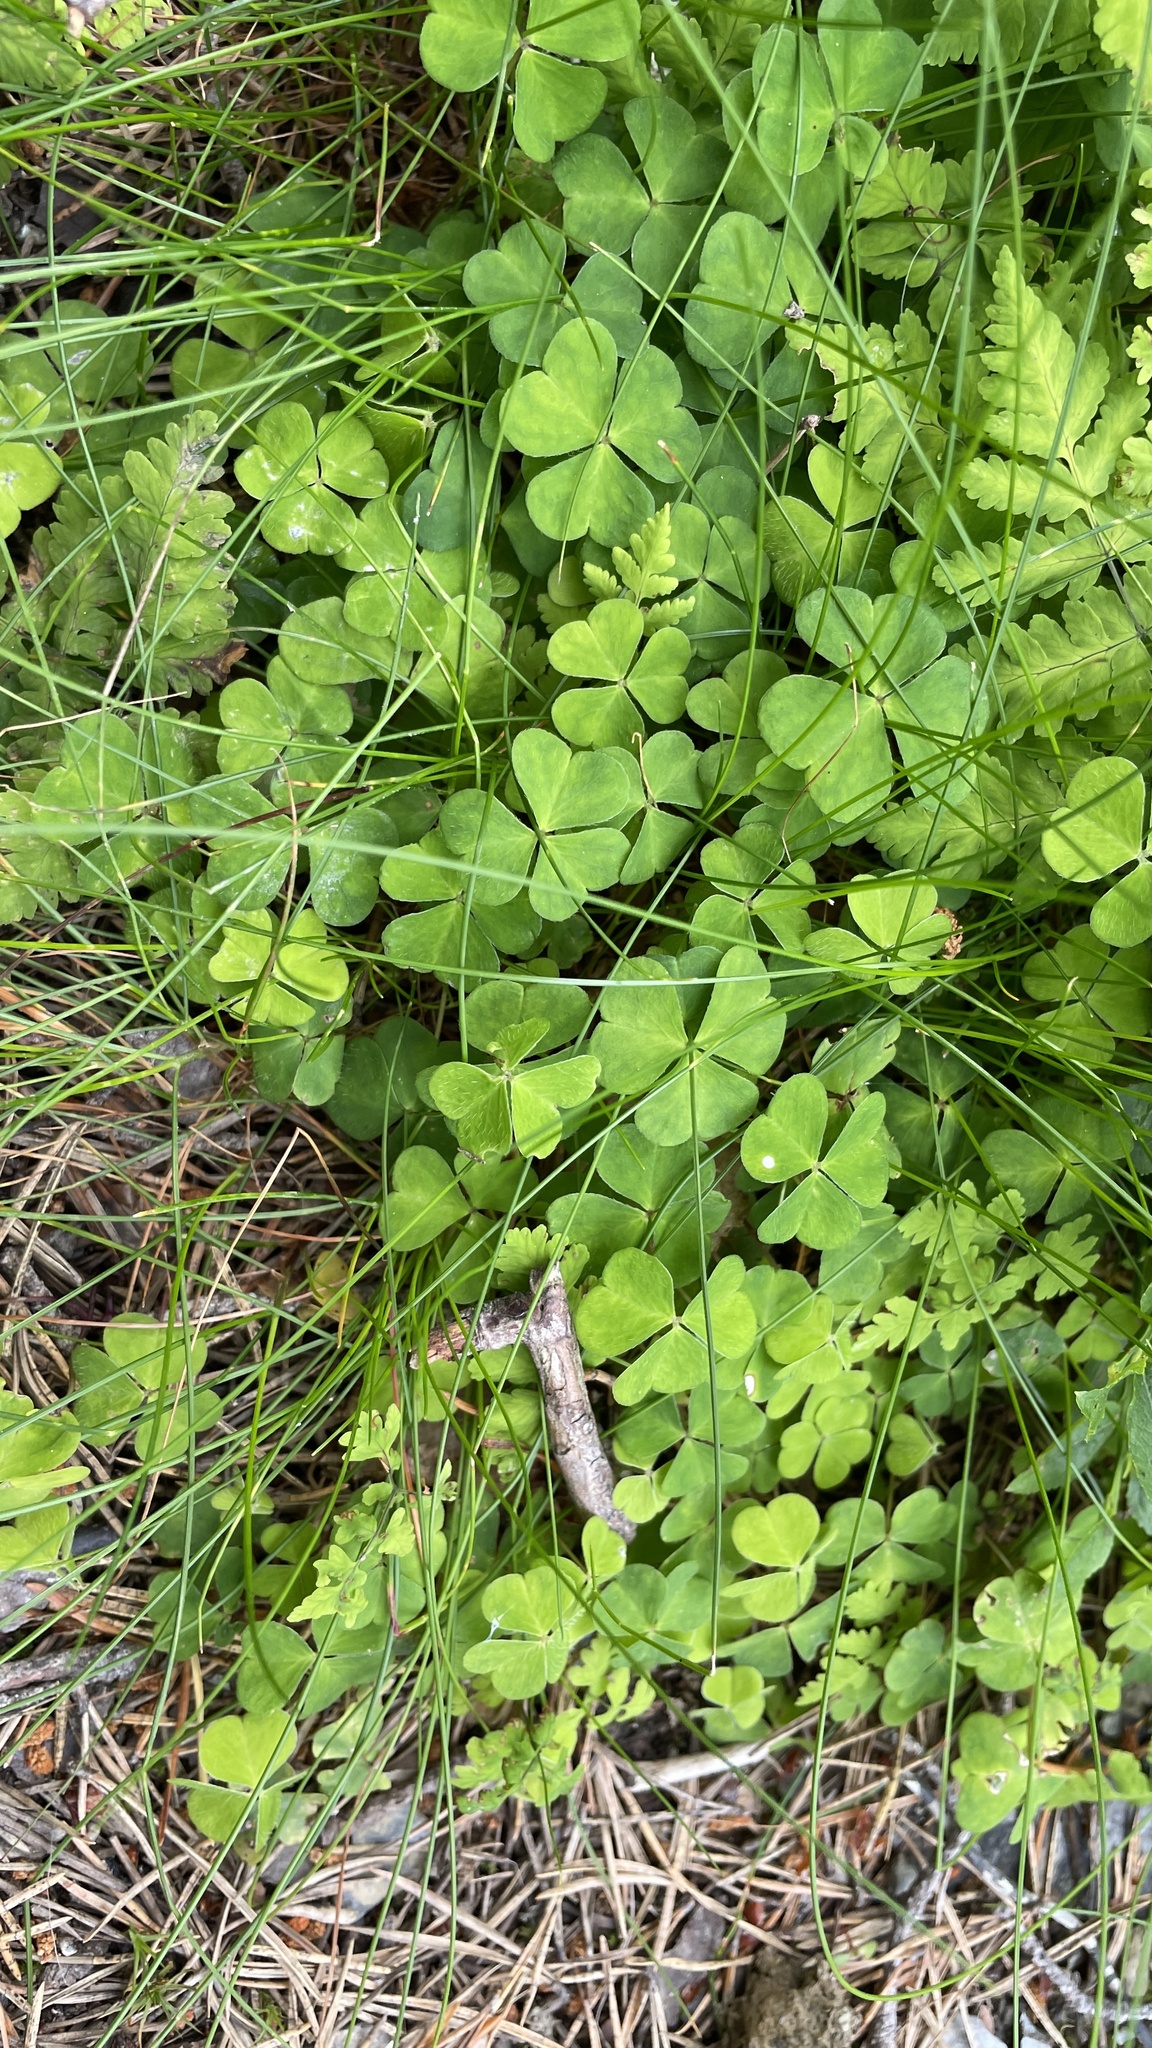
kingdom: Plantae
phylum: Tracheophyta
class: Magnoliopsida
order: Oxalidales
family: Oxalidaceae
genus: Oxalis
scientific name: Oxalis acetosella
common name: Wood-sorrel
